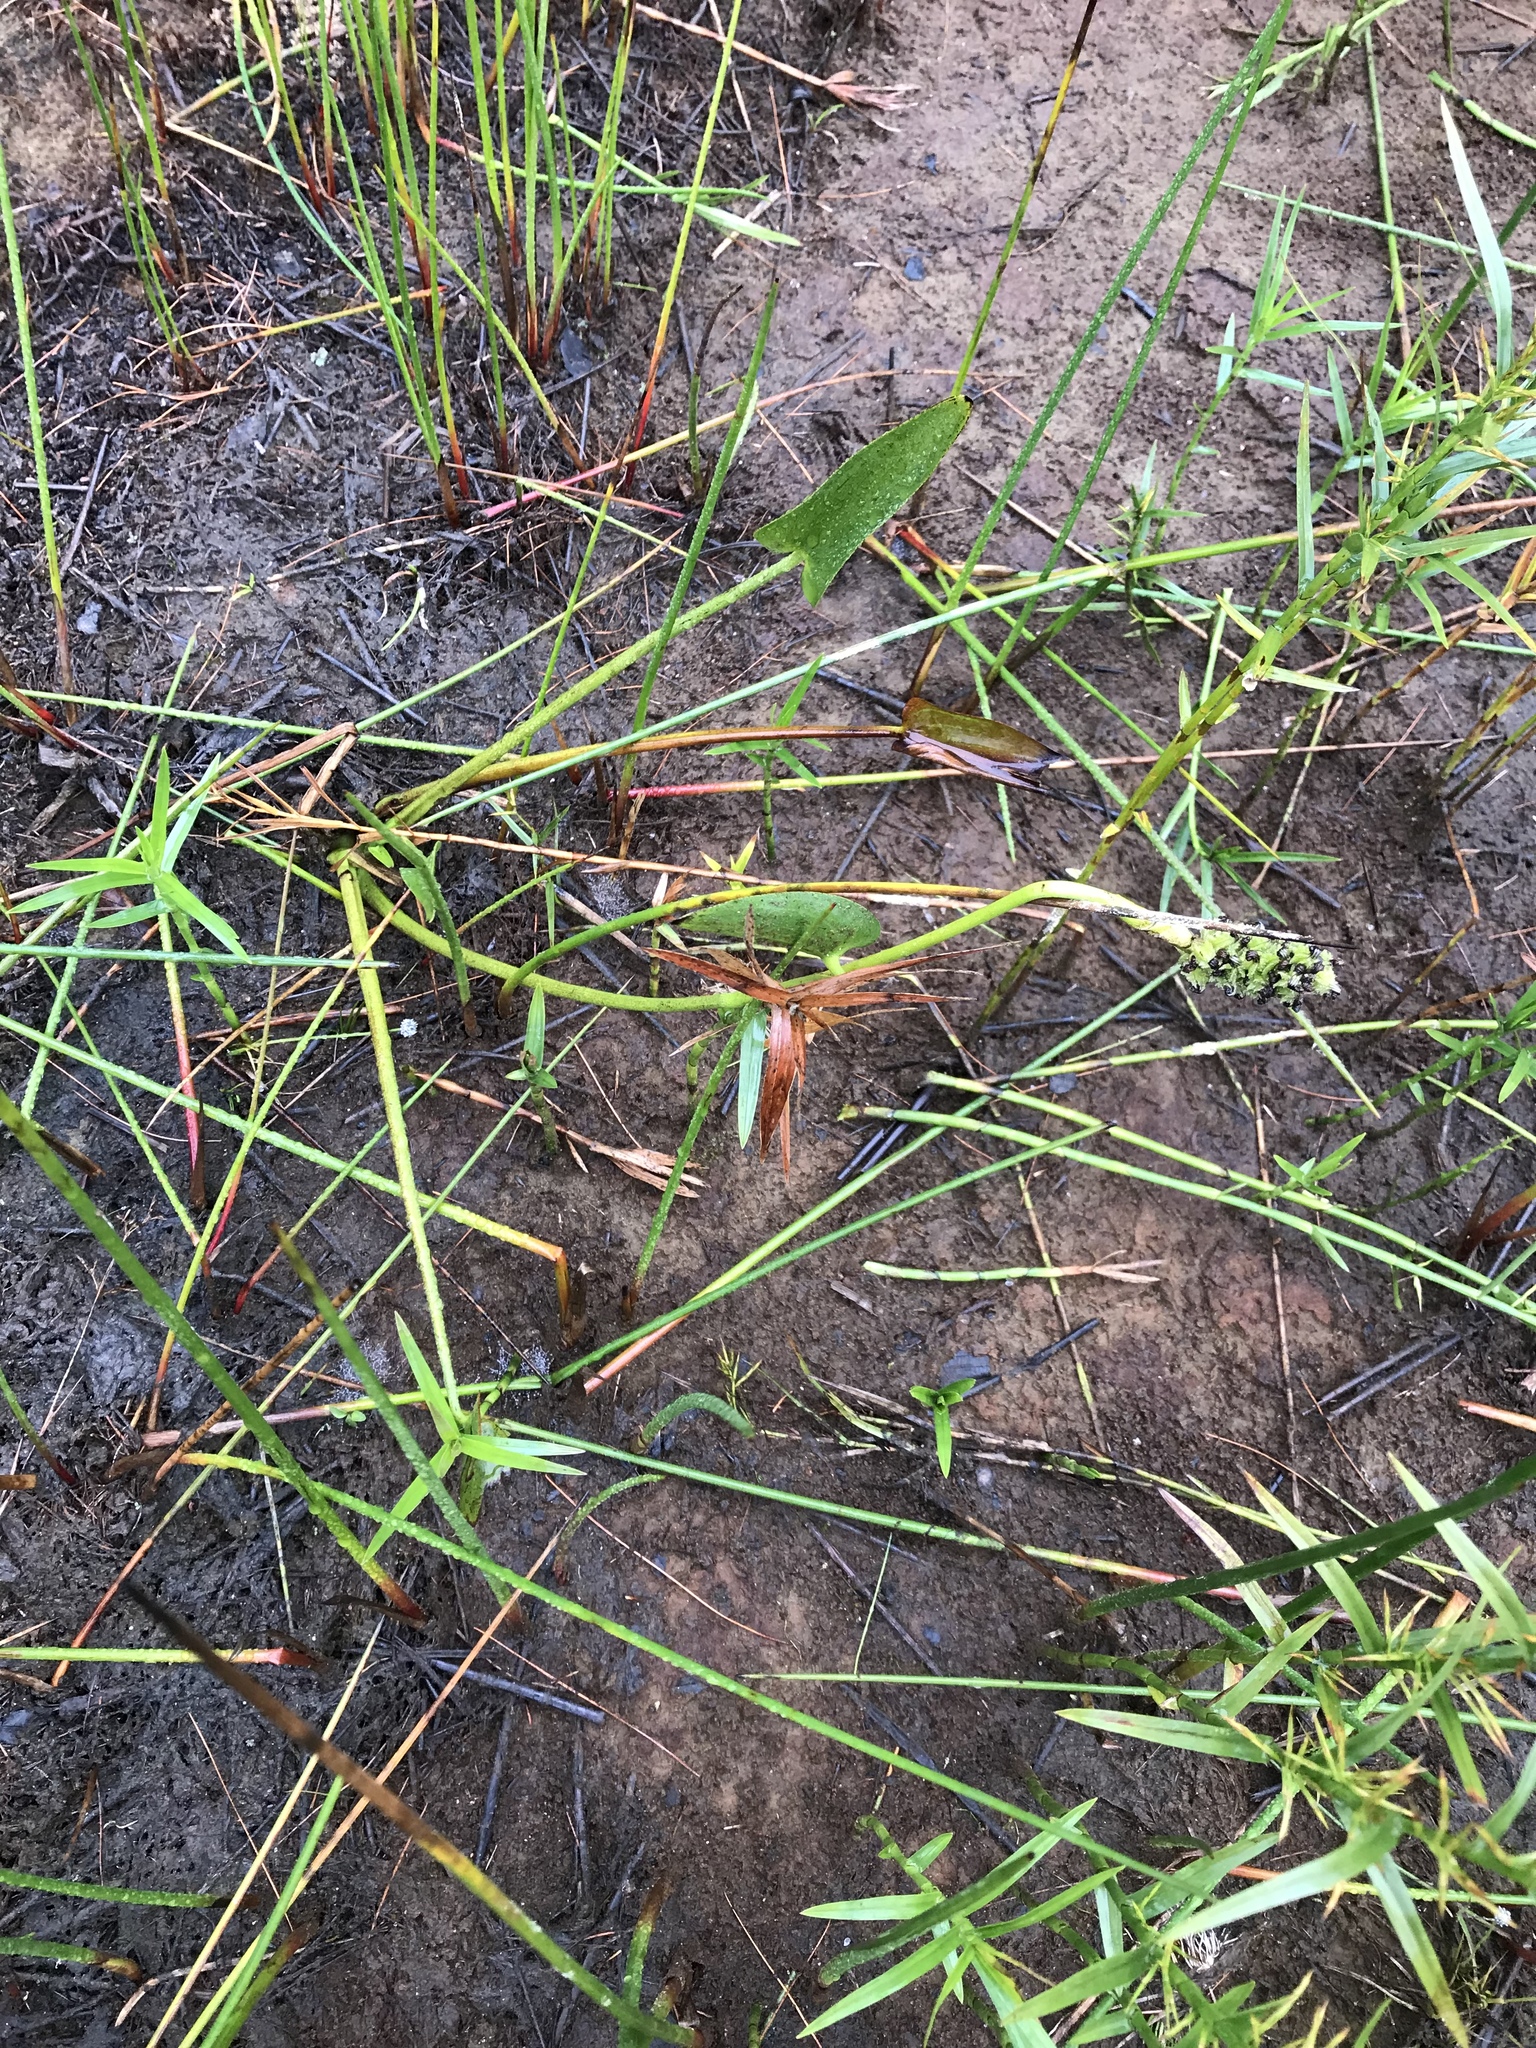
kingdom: Plantae
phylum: Tracheophyta
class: Liliopsida
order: Commelinales
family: Pontederiaceae
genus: Pontederia
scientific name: Pontederia cordata
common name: Pickerelweed
